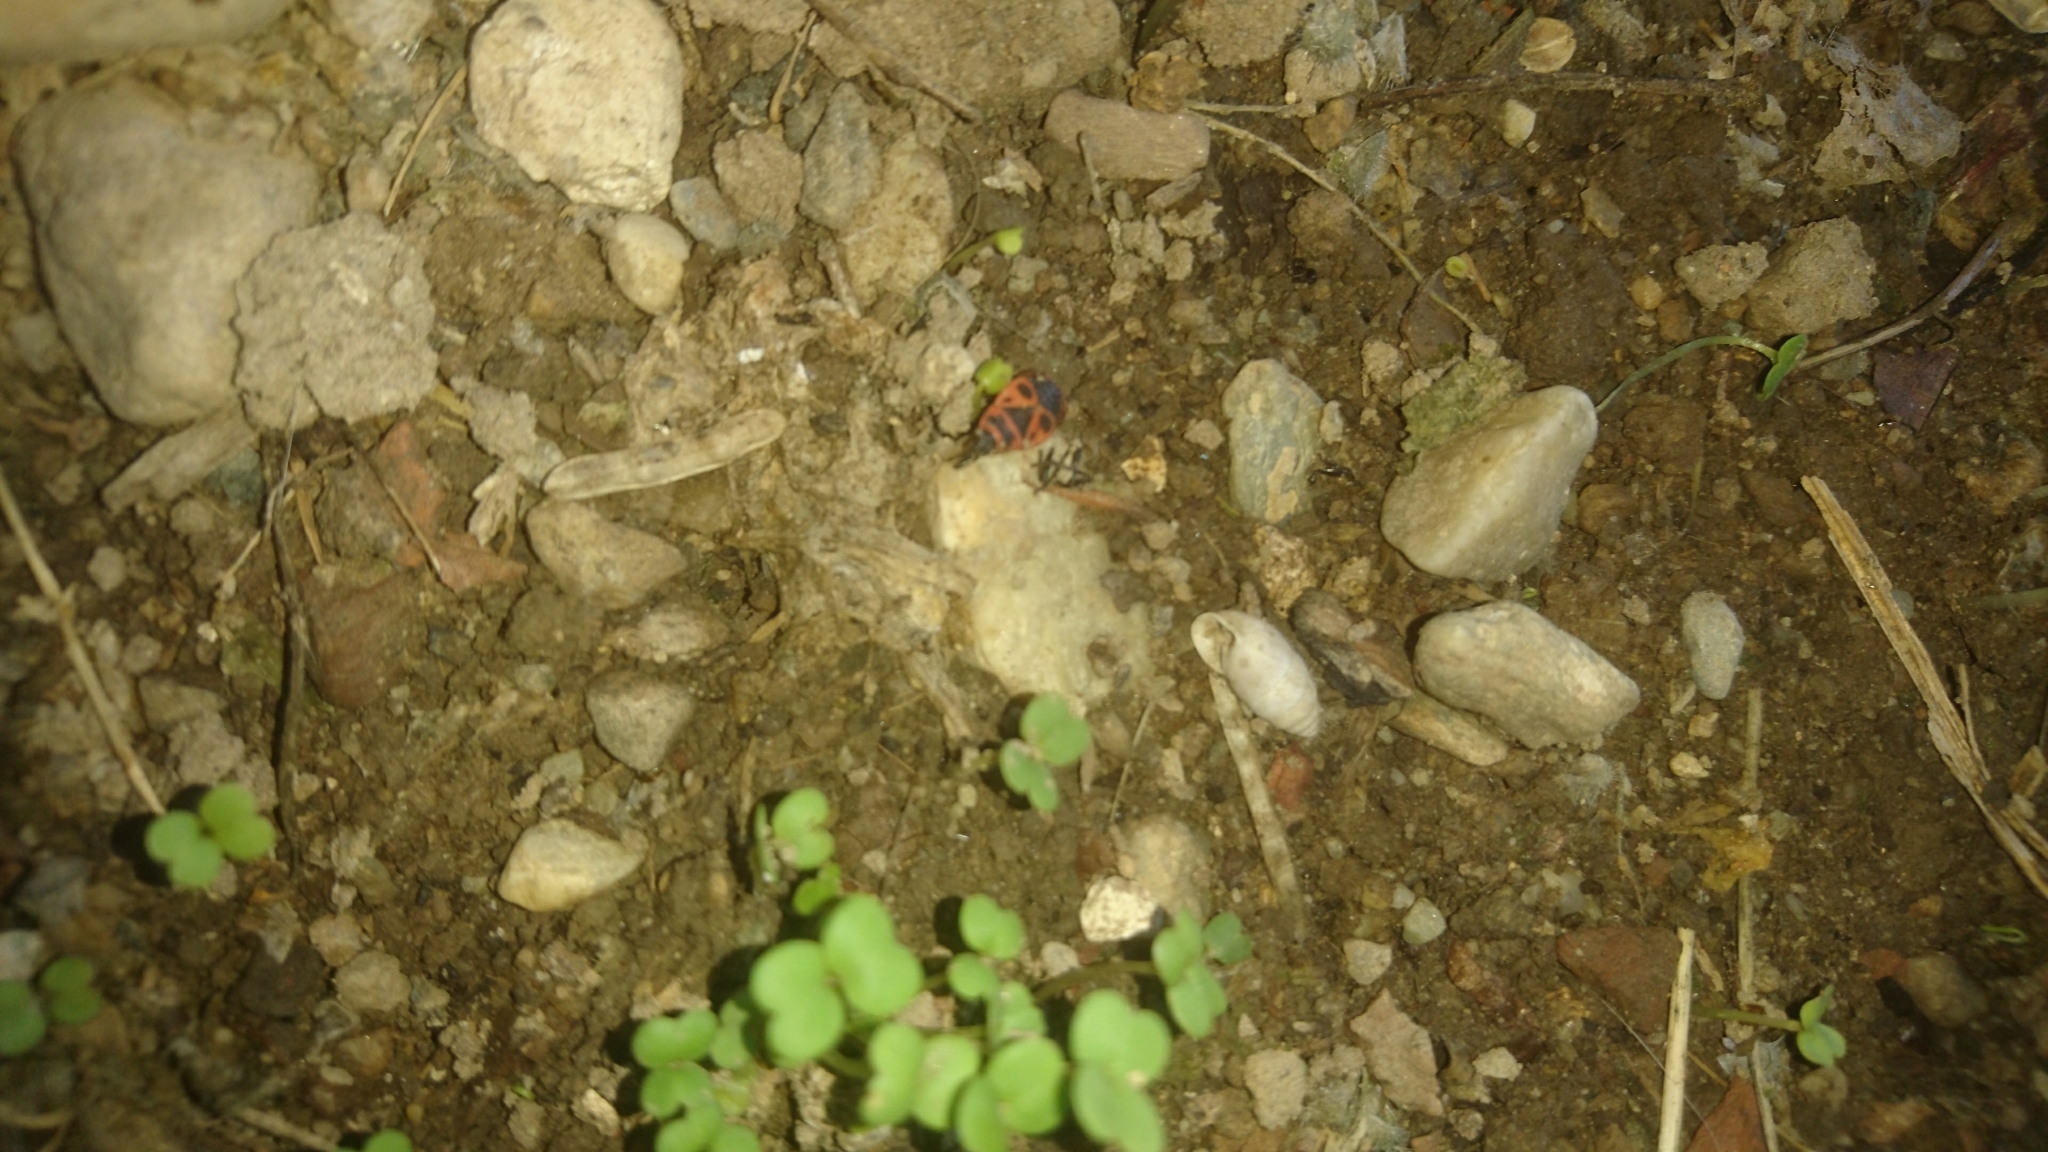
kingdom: Animalia
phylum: Arthropoda
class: Insecta
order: Hemiptera
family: Pyrrhocoridae
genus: Pyrrhocoris
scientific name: Pyrrhocoris apterus
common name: Firebug
